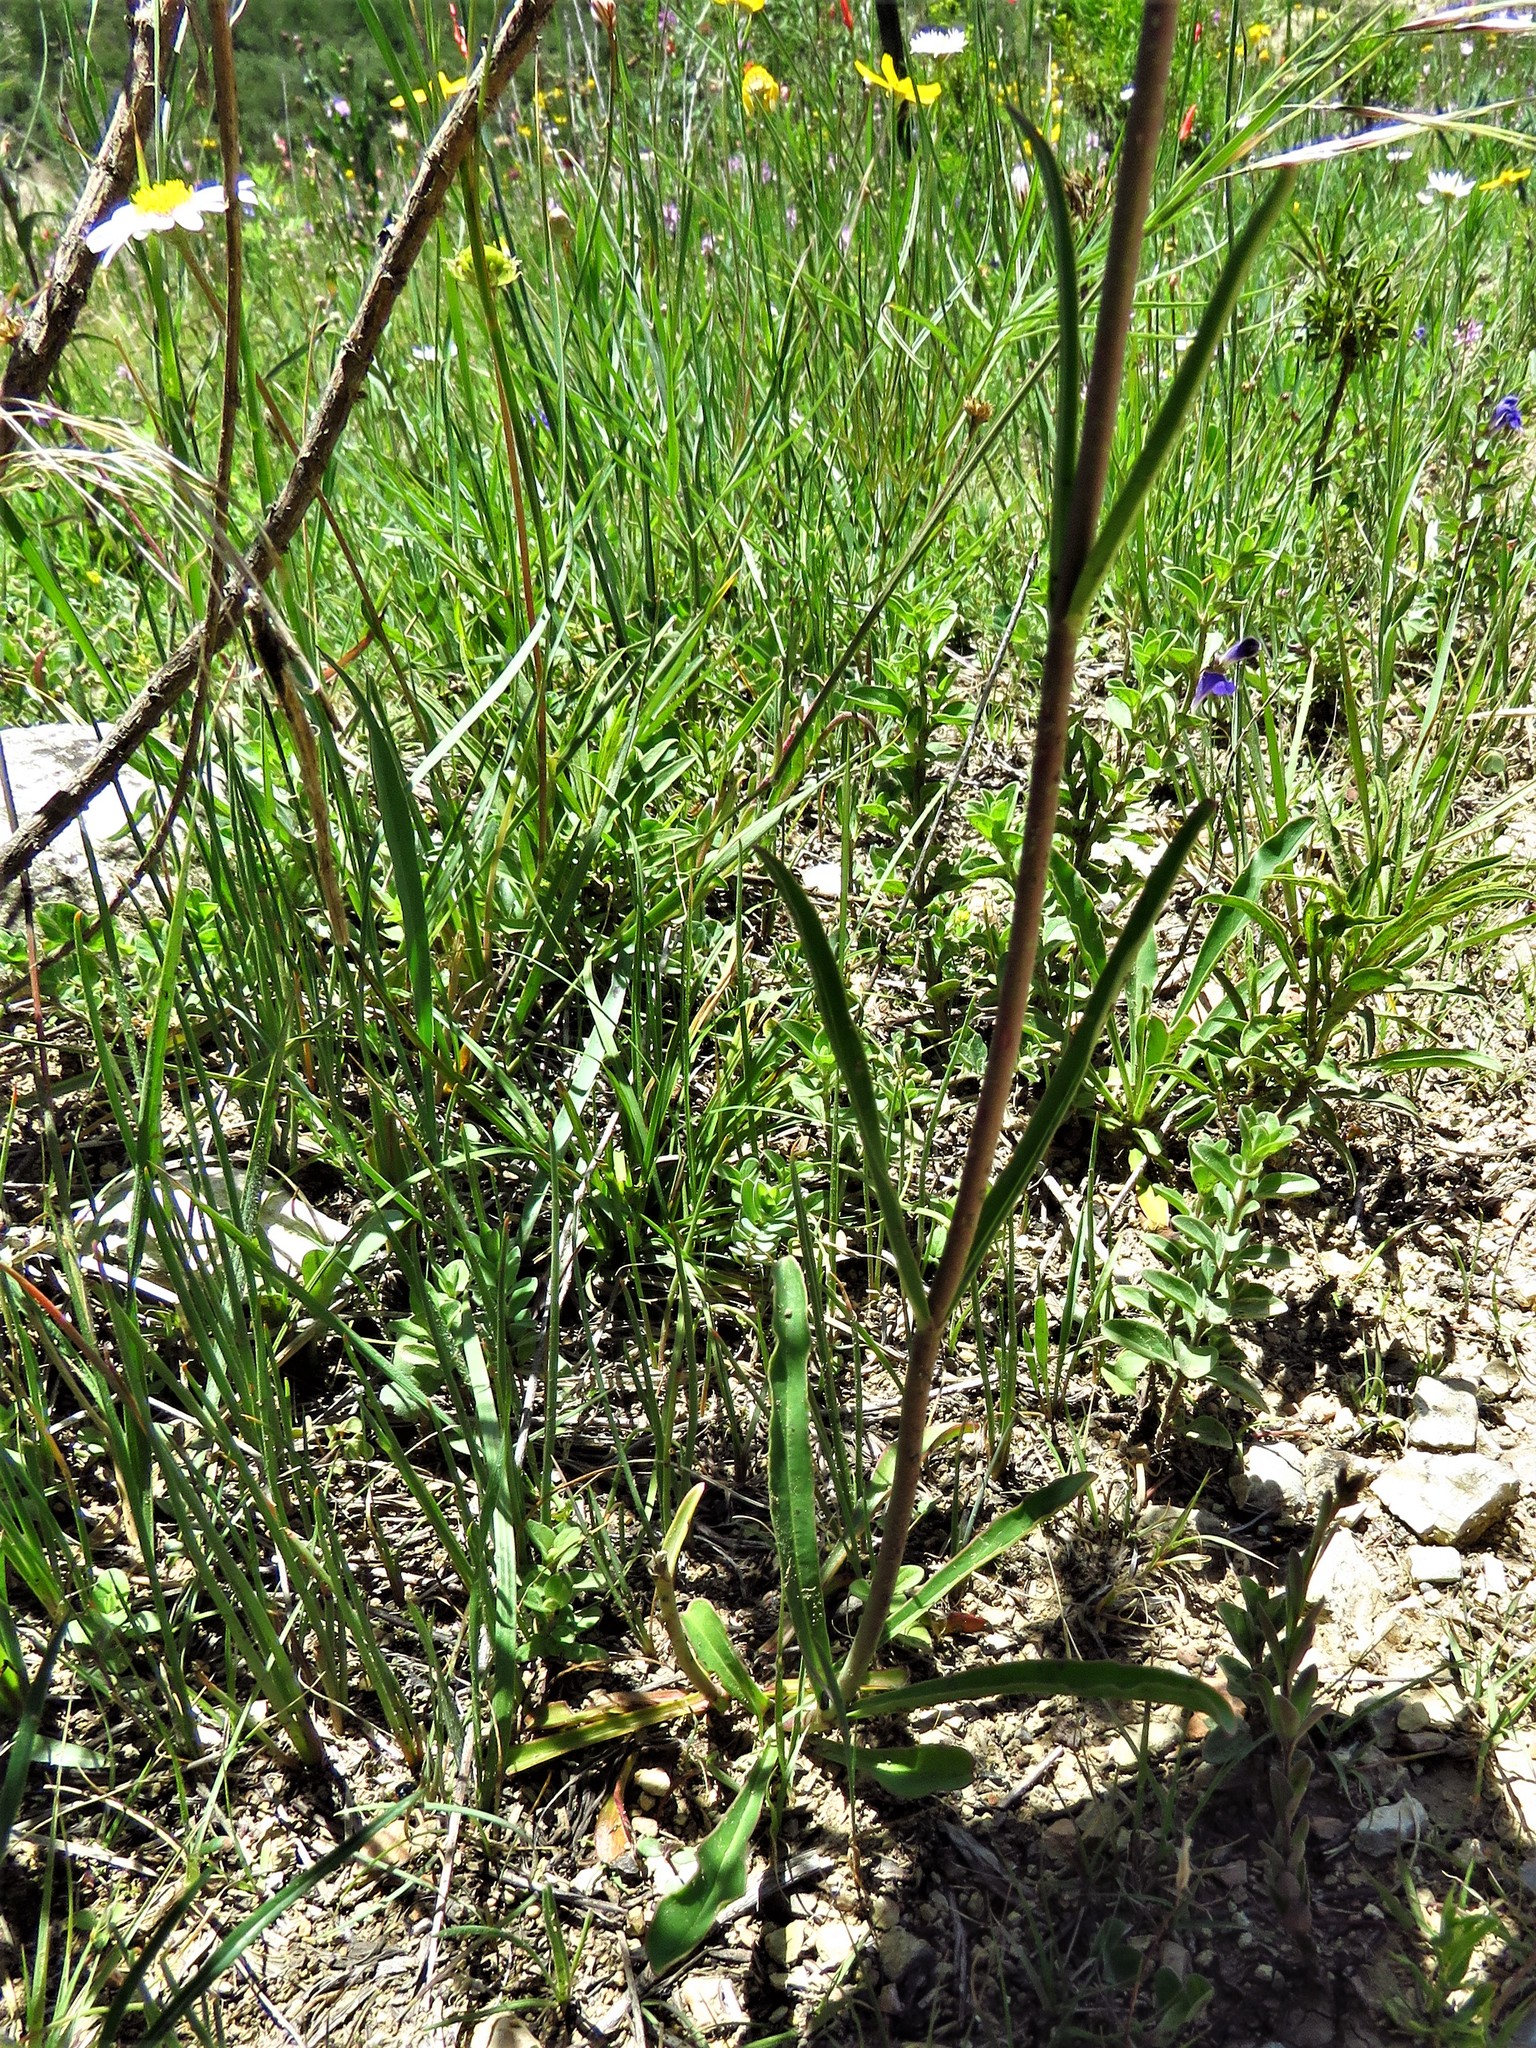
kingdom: Plantae
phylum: Tracheophyta
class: Magnoliopsida
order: Lamiales
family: Plantaginaceae
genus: Penstemon
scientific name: Penstemon barbatus
